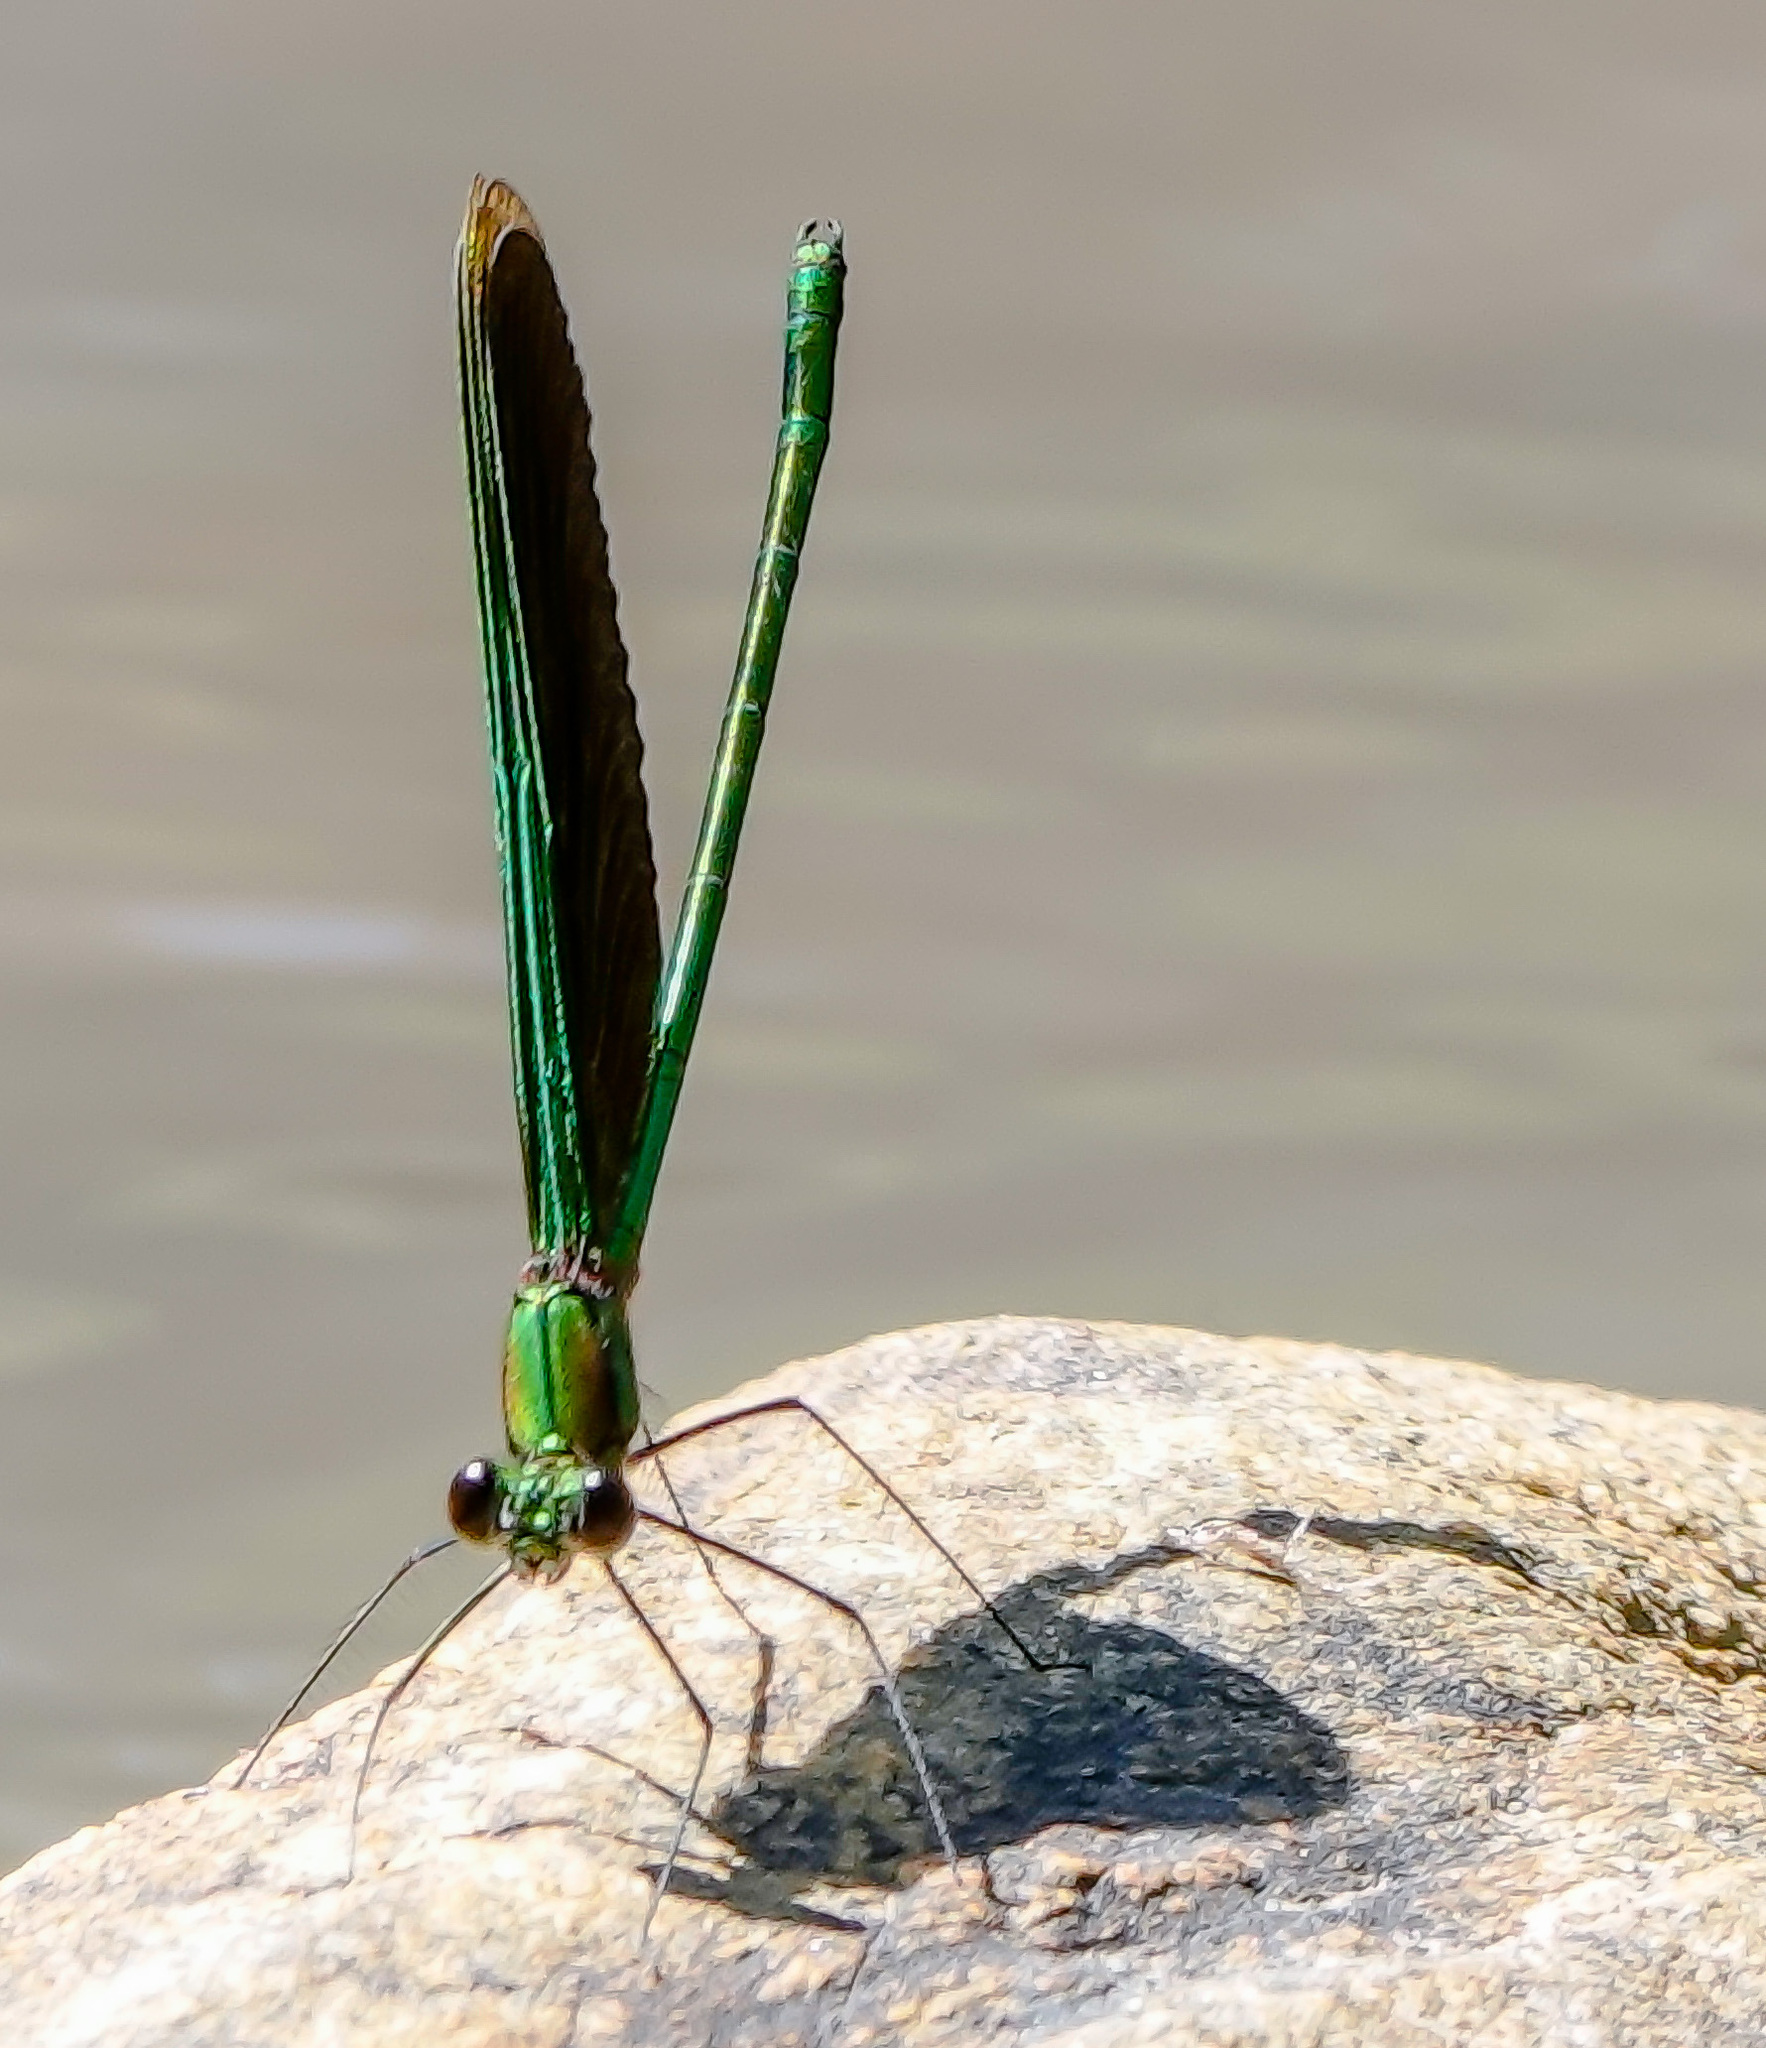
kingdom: Animalia
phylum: Arthropoda
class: Insecta
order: Odonata
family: Calopterygidae
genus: Neurobasis
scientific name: Neurobasis chinensis
